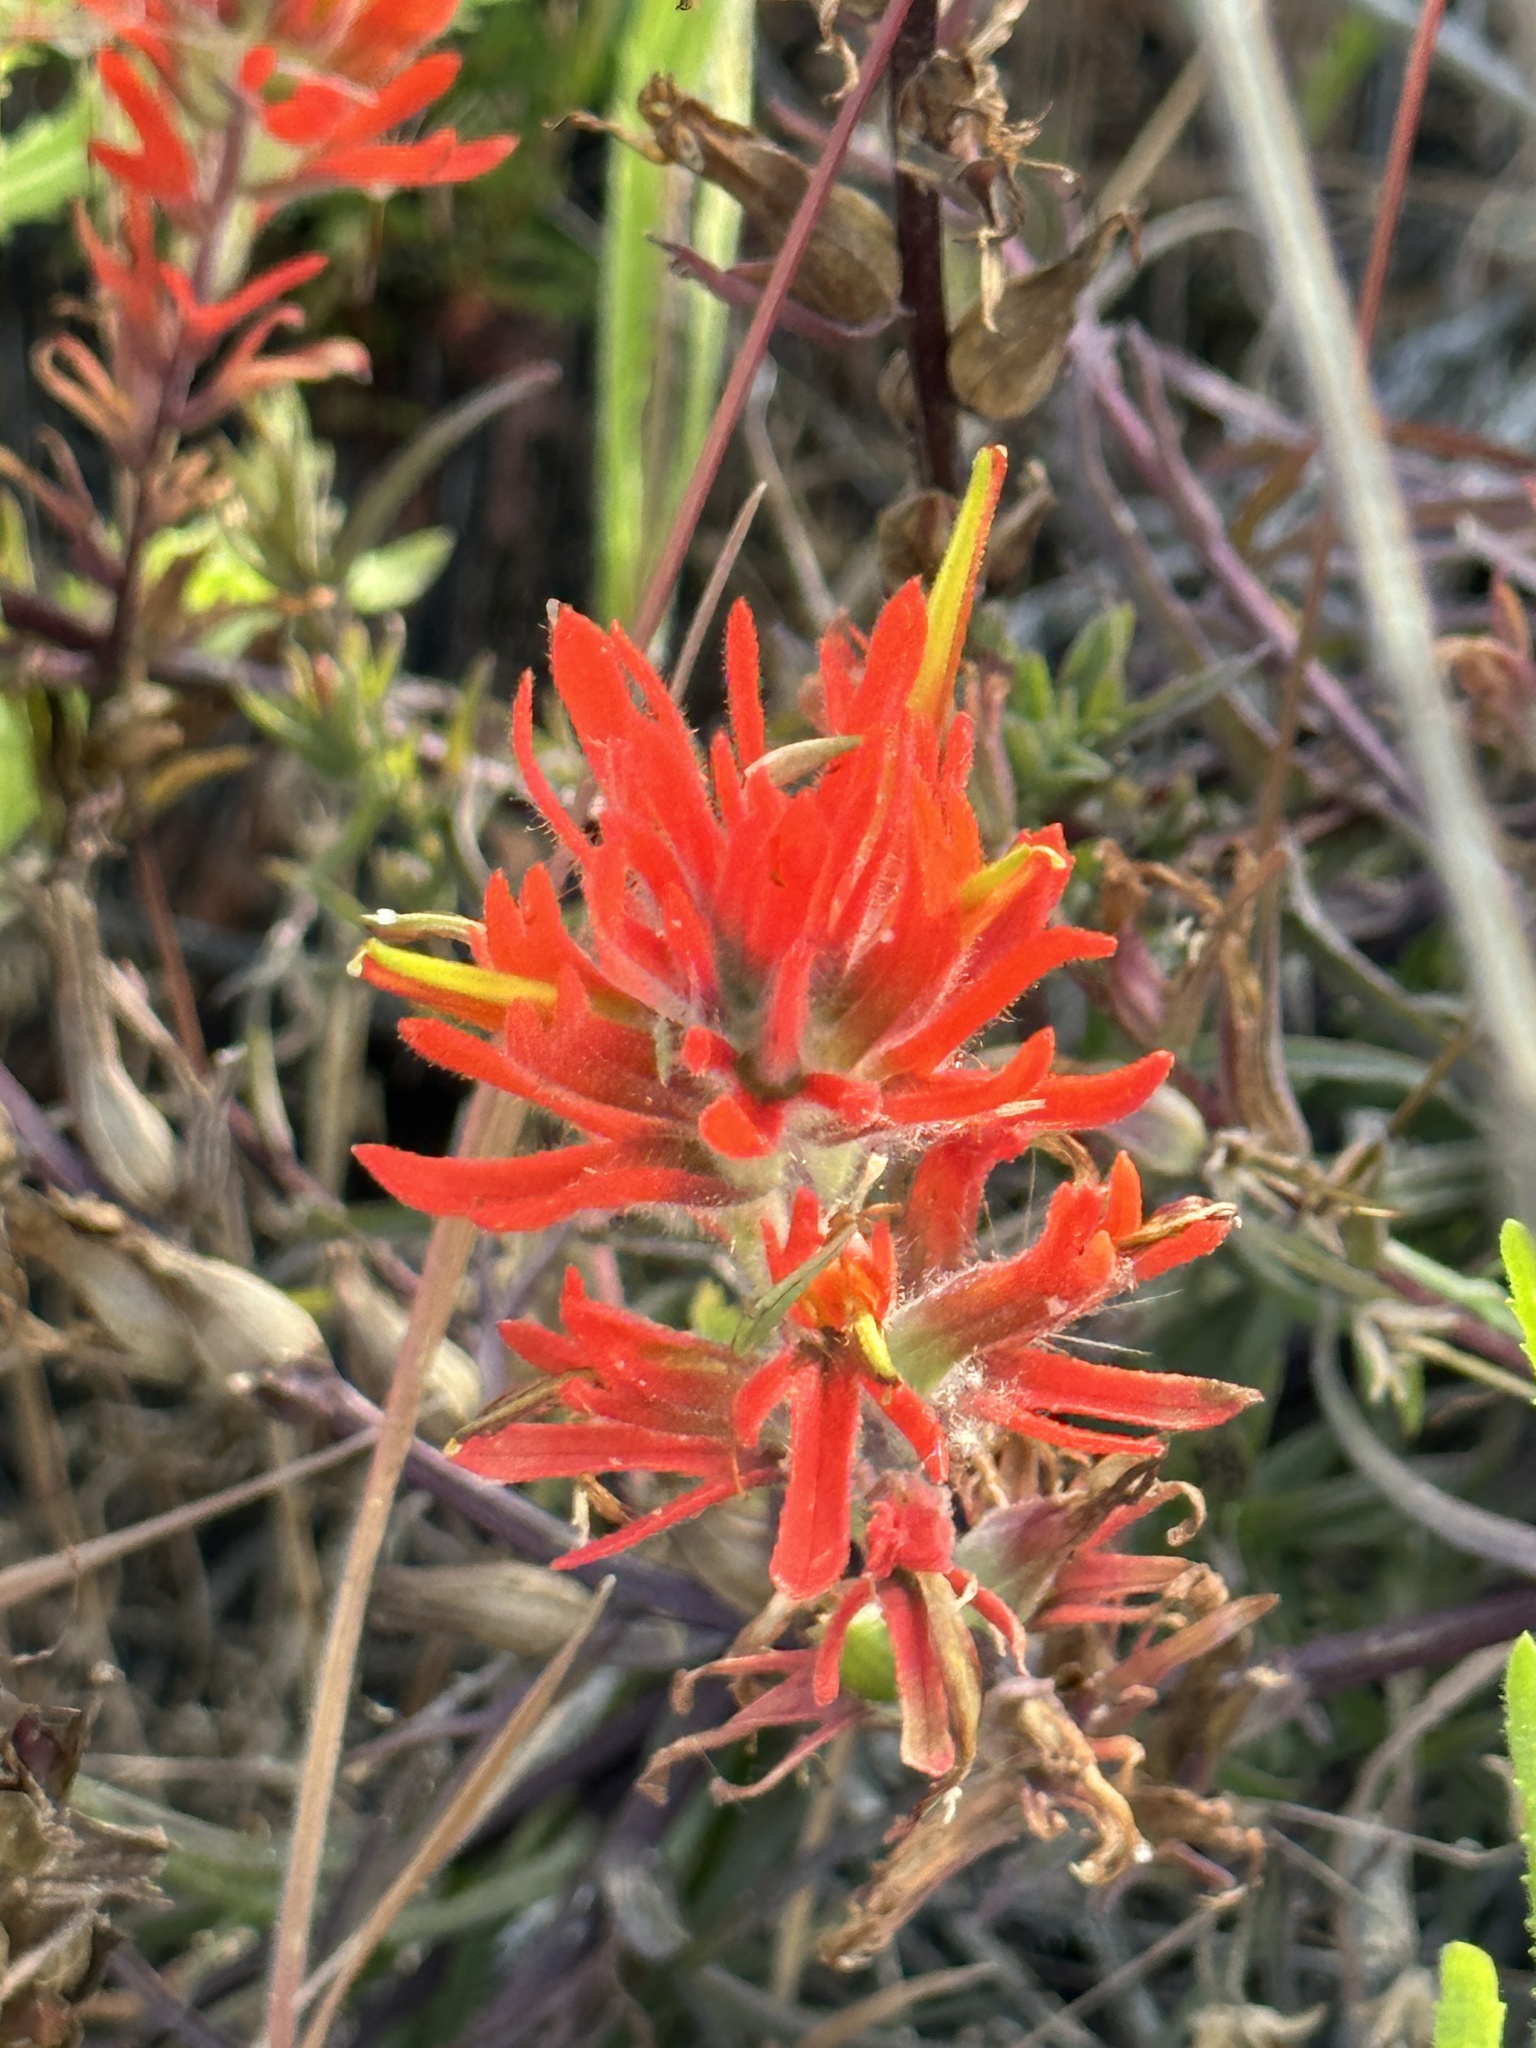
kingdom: Plantae
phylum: Tracheophyta
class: Magnoliopsida
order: Lamiales
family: Orobanchaceae
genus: Castilleja
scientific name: Castilleja affinis
